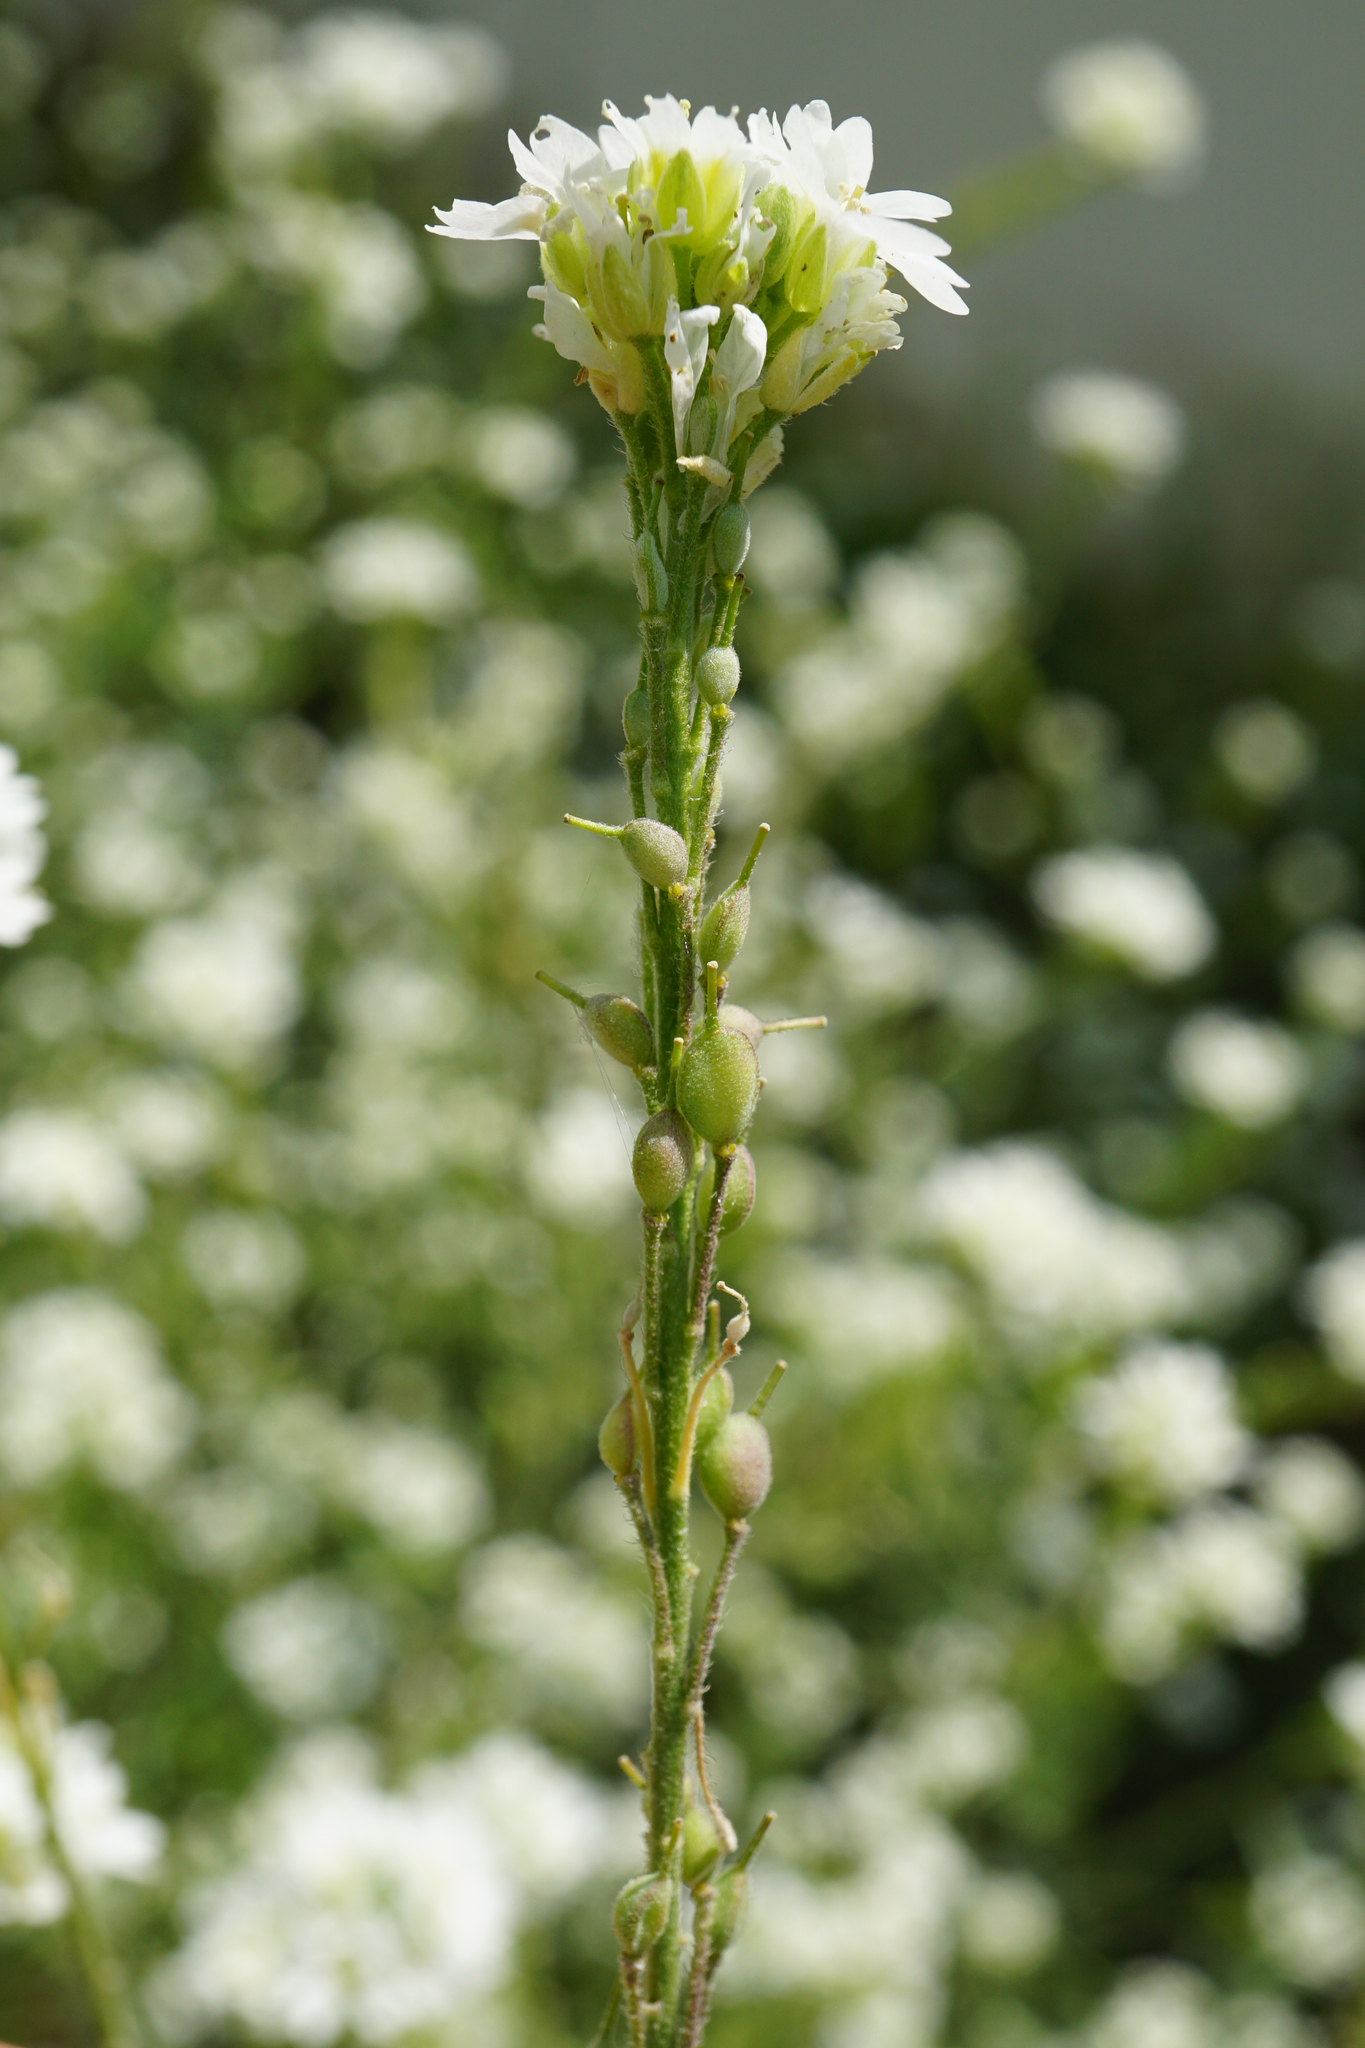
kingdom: Plantae
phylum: Tracheophyta
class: Magnoliopsida
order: Brassicales
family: Brassicaceae
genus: Berteroa
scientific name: Berteroa incana
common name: Hoary alison
